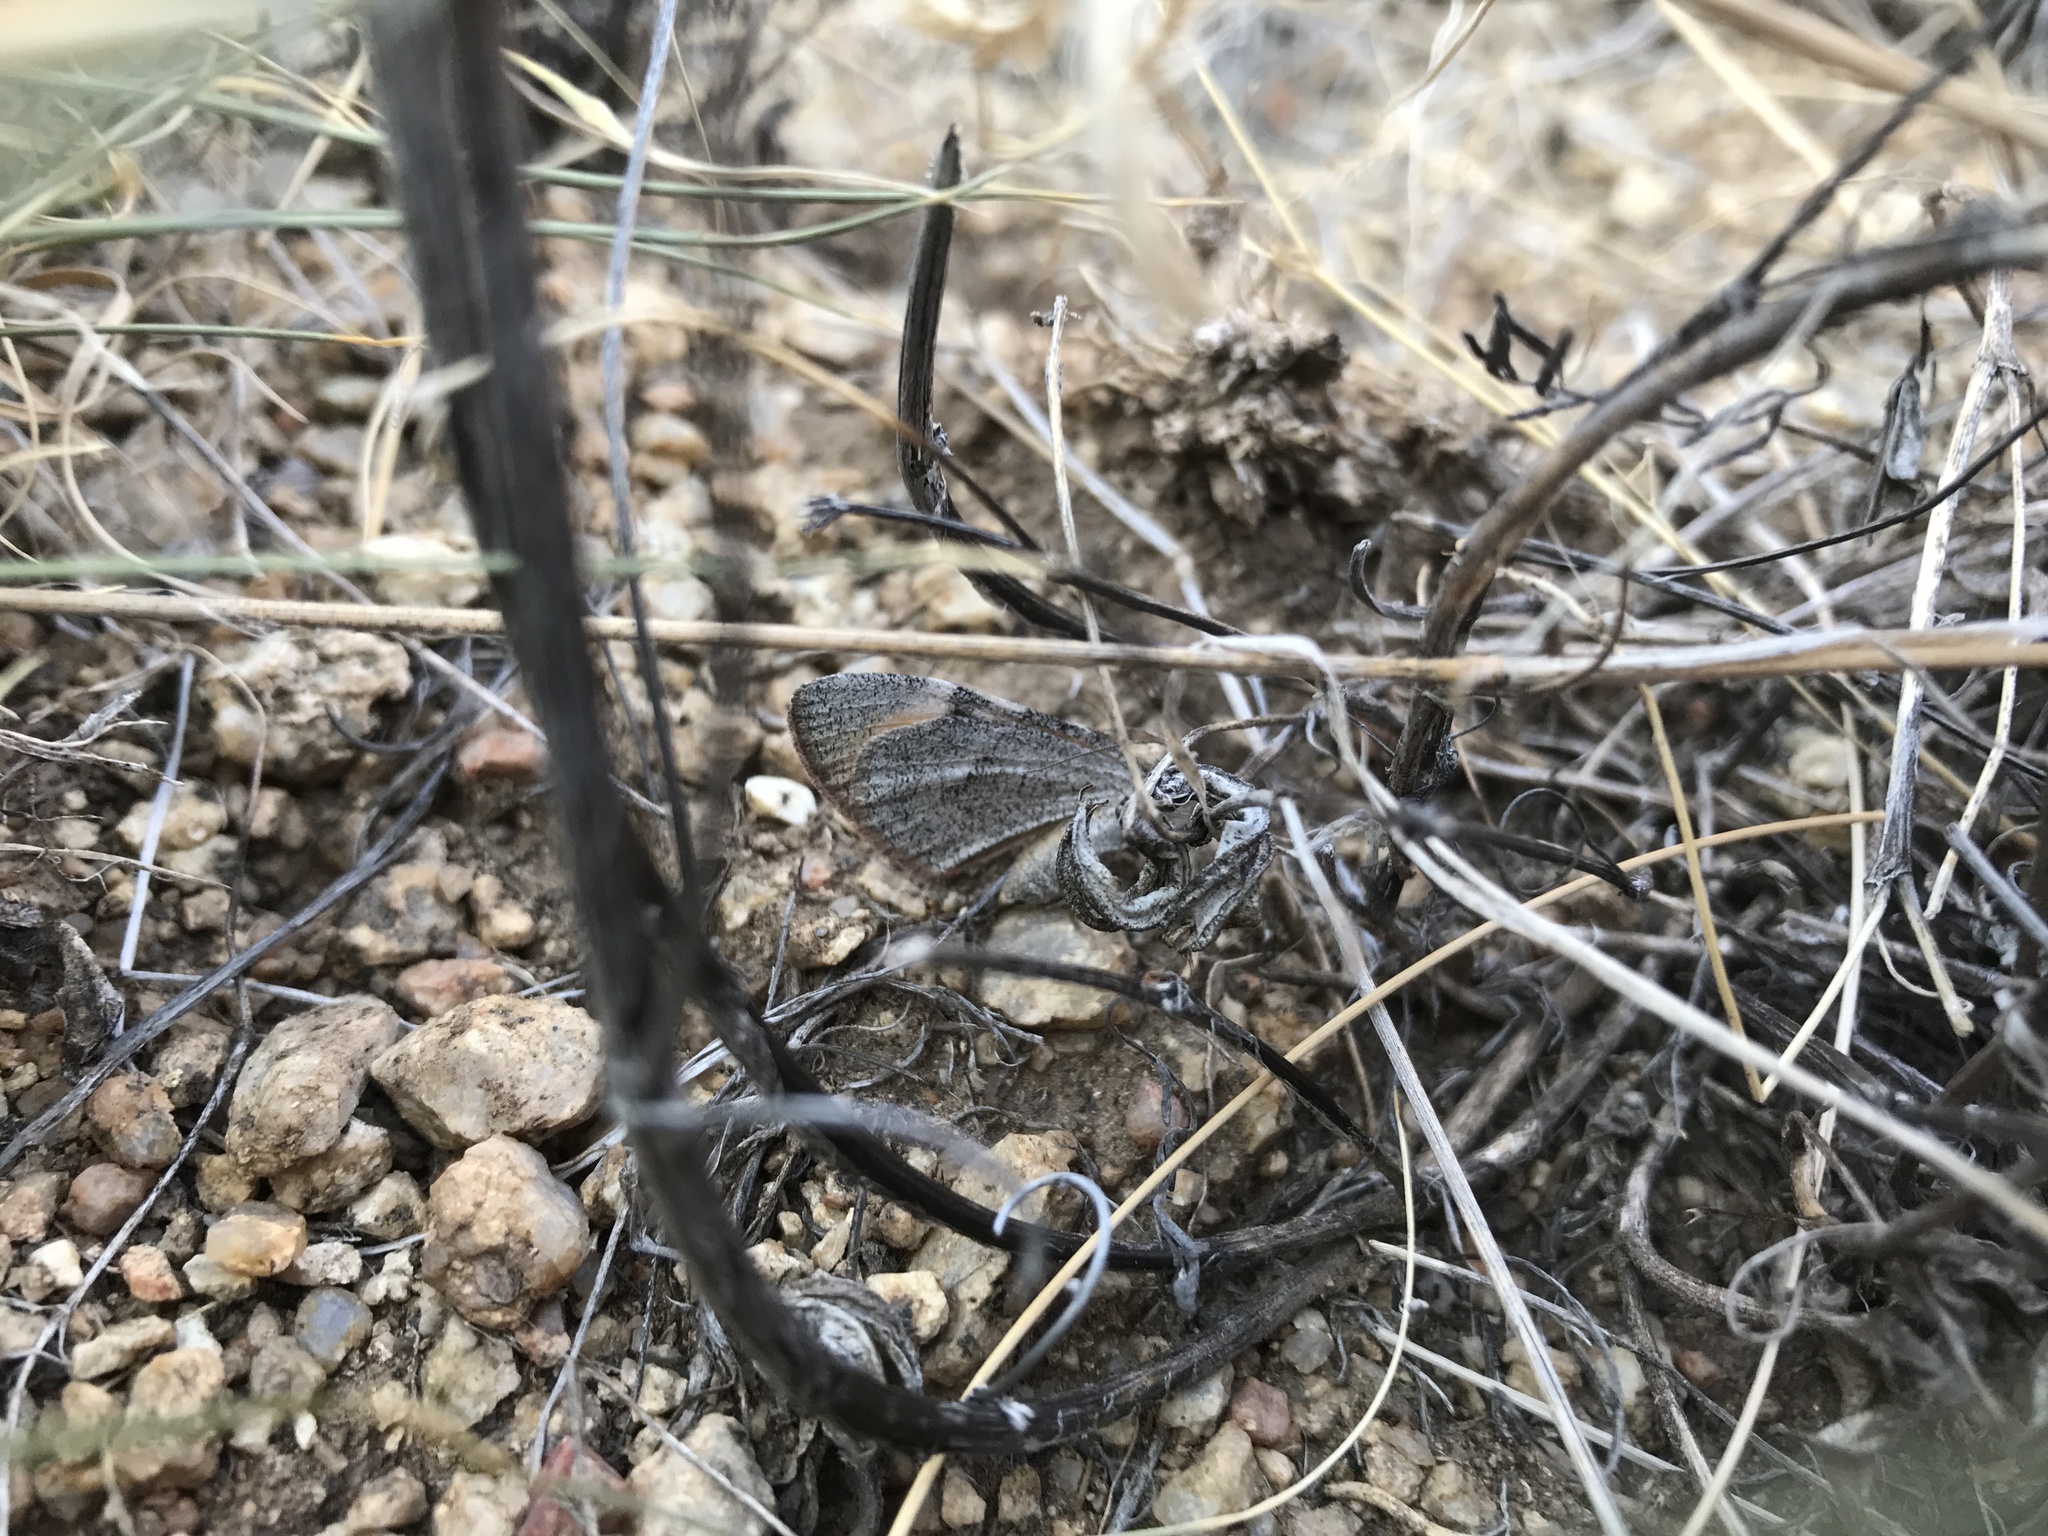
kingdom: Animalia
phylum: Arthropoda
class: Insecta
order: Lepidoptera
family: Geometridae
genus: Stamnodes
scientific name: Stamnodes seiferti
